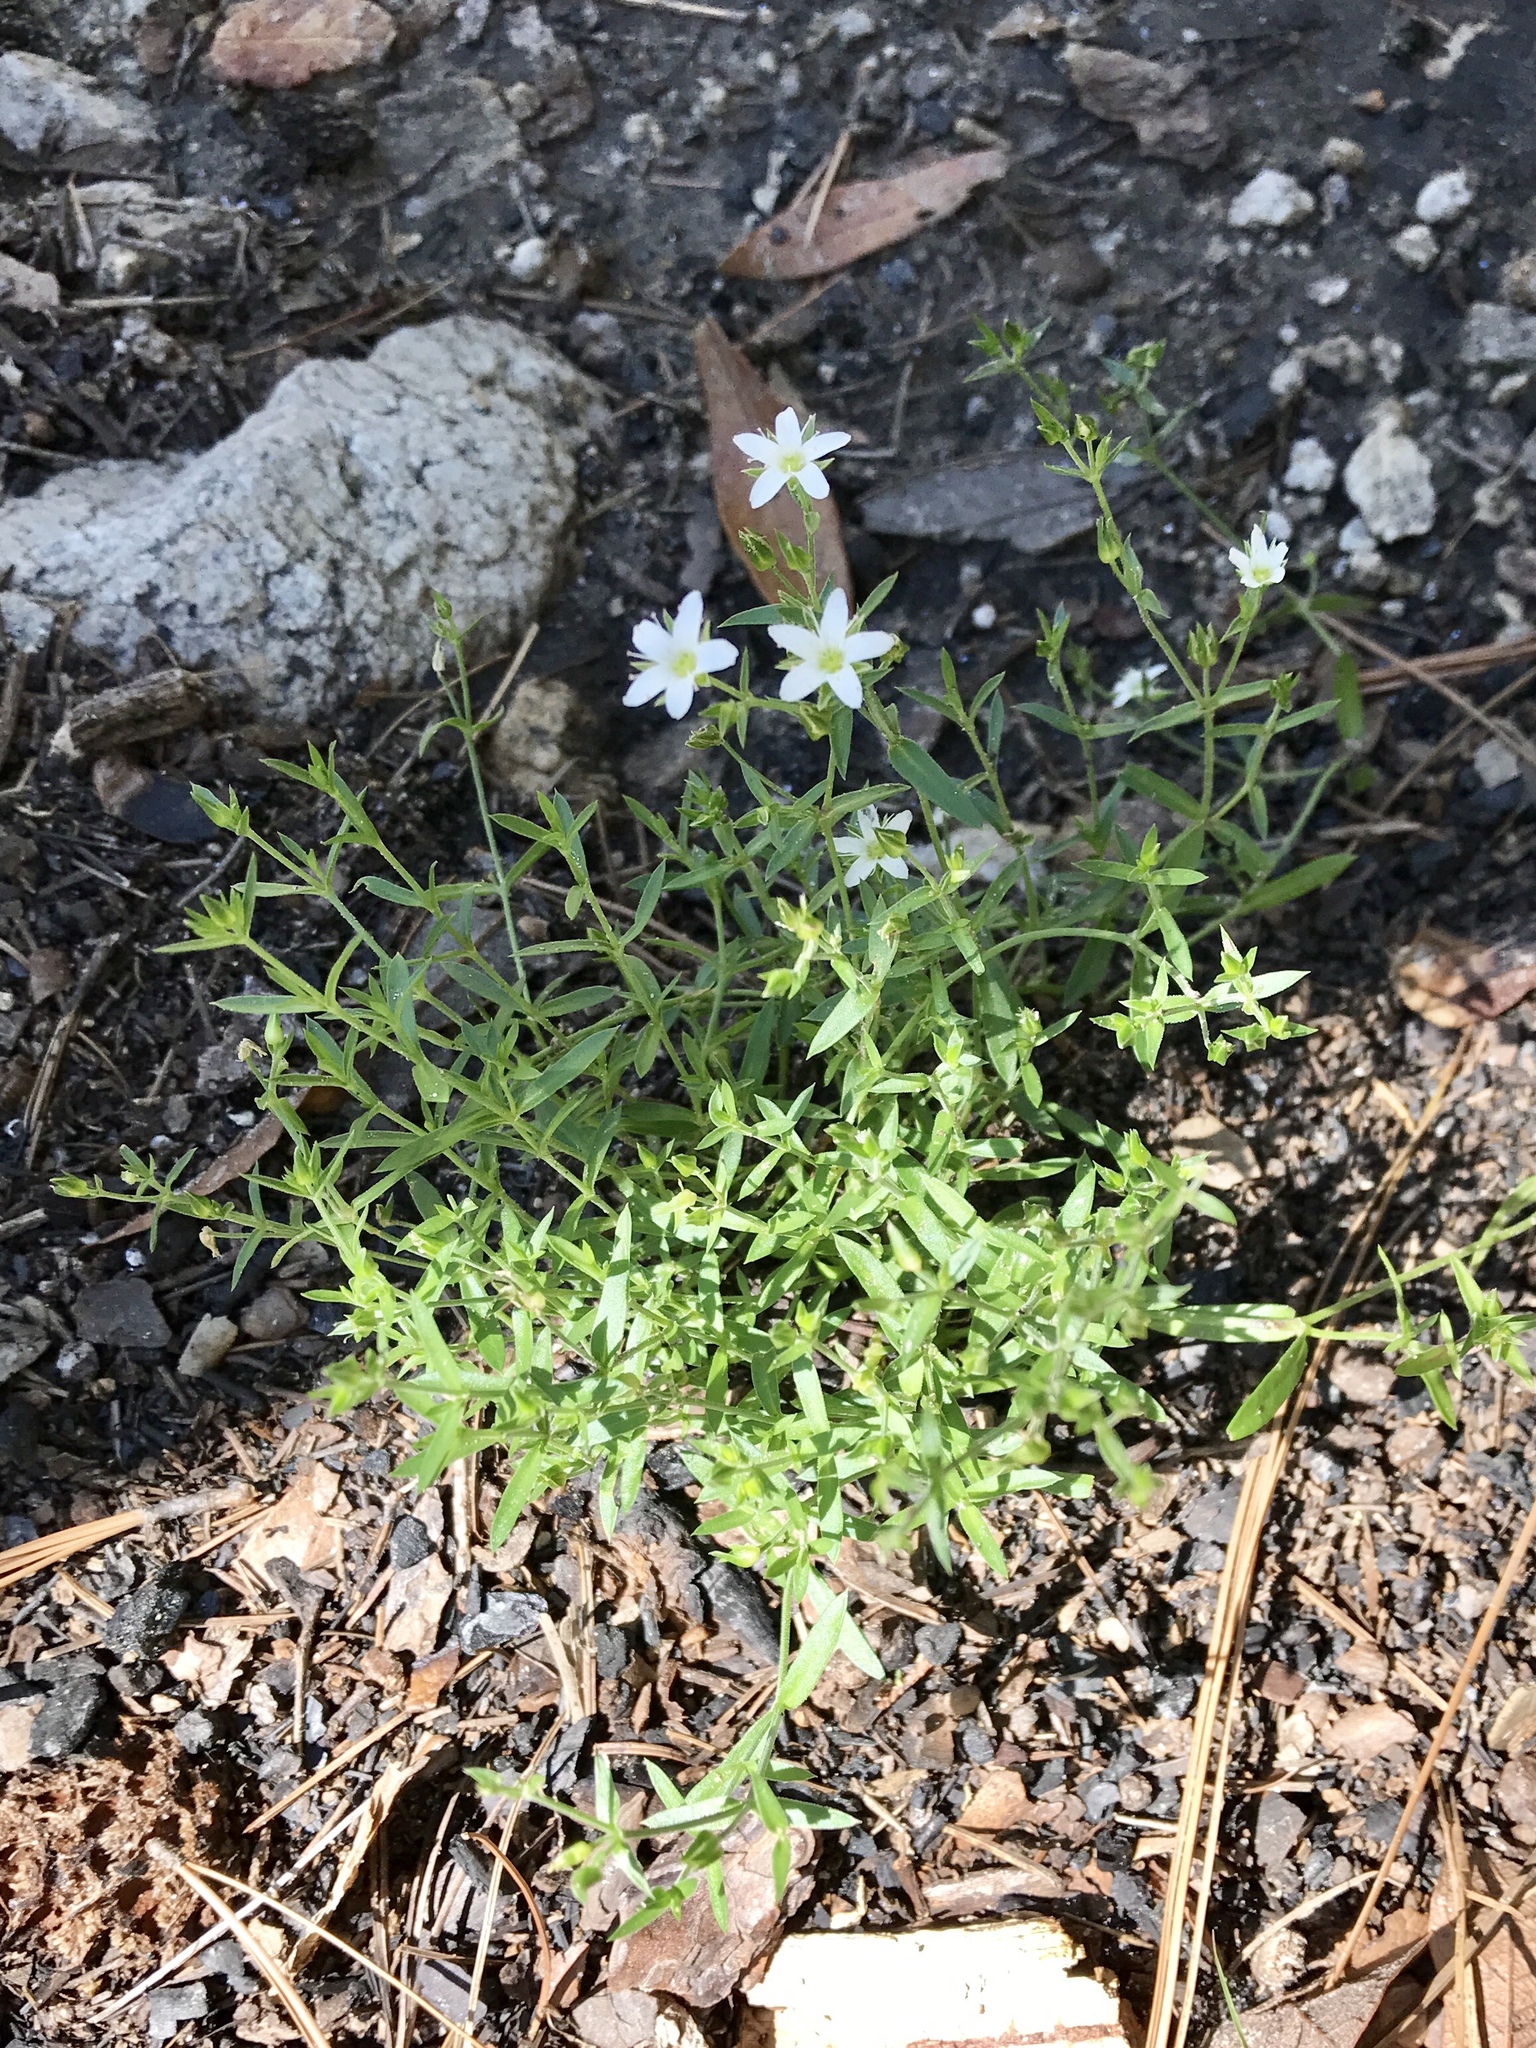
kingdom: Plantae
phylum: Tracheophyta
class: Magnoliopsida
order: Caryophyllales
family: Caryophyllaceae
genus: Arenaria
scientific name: Arenaria lanuginosa
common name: Spread sandwort
